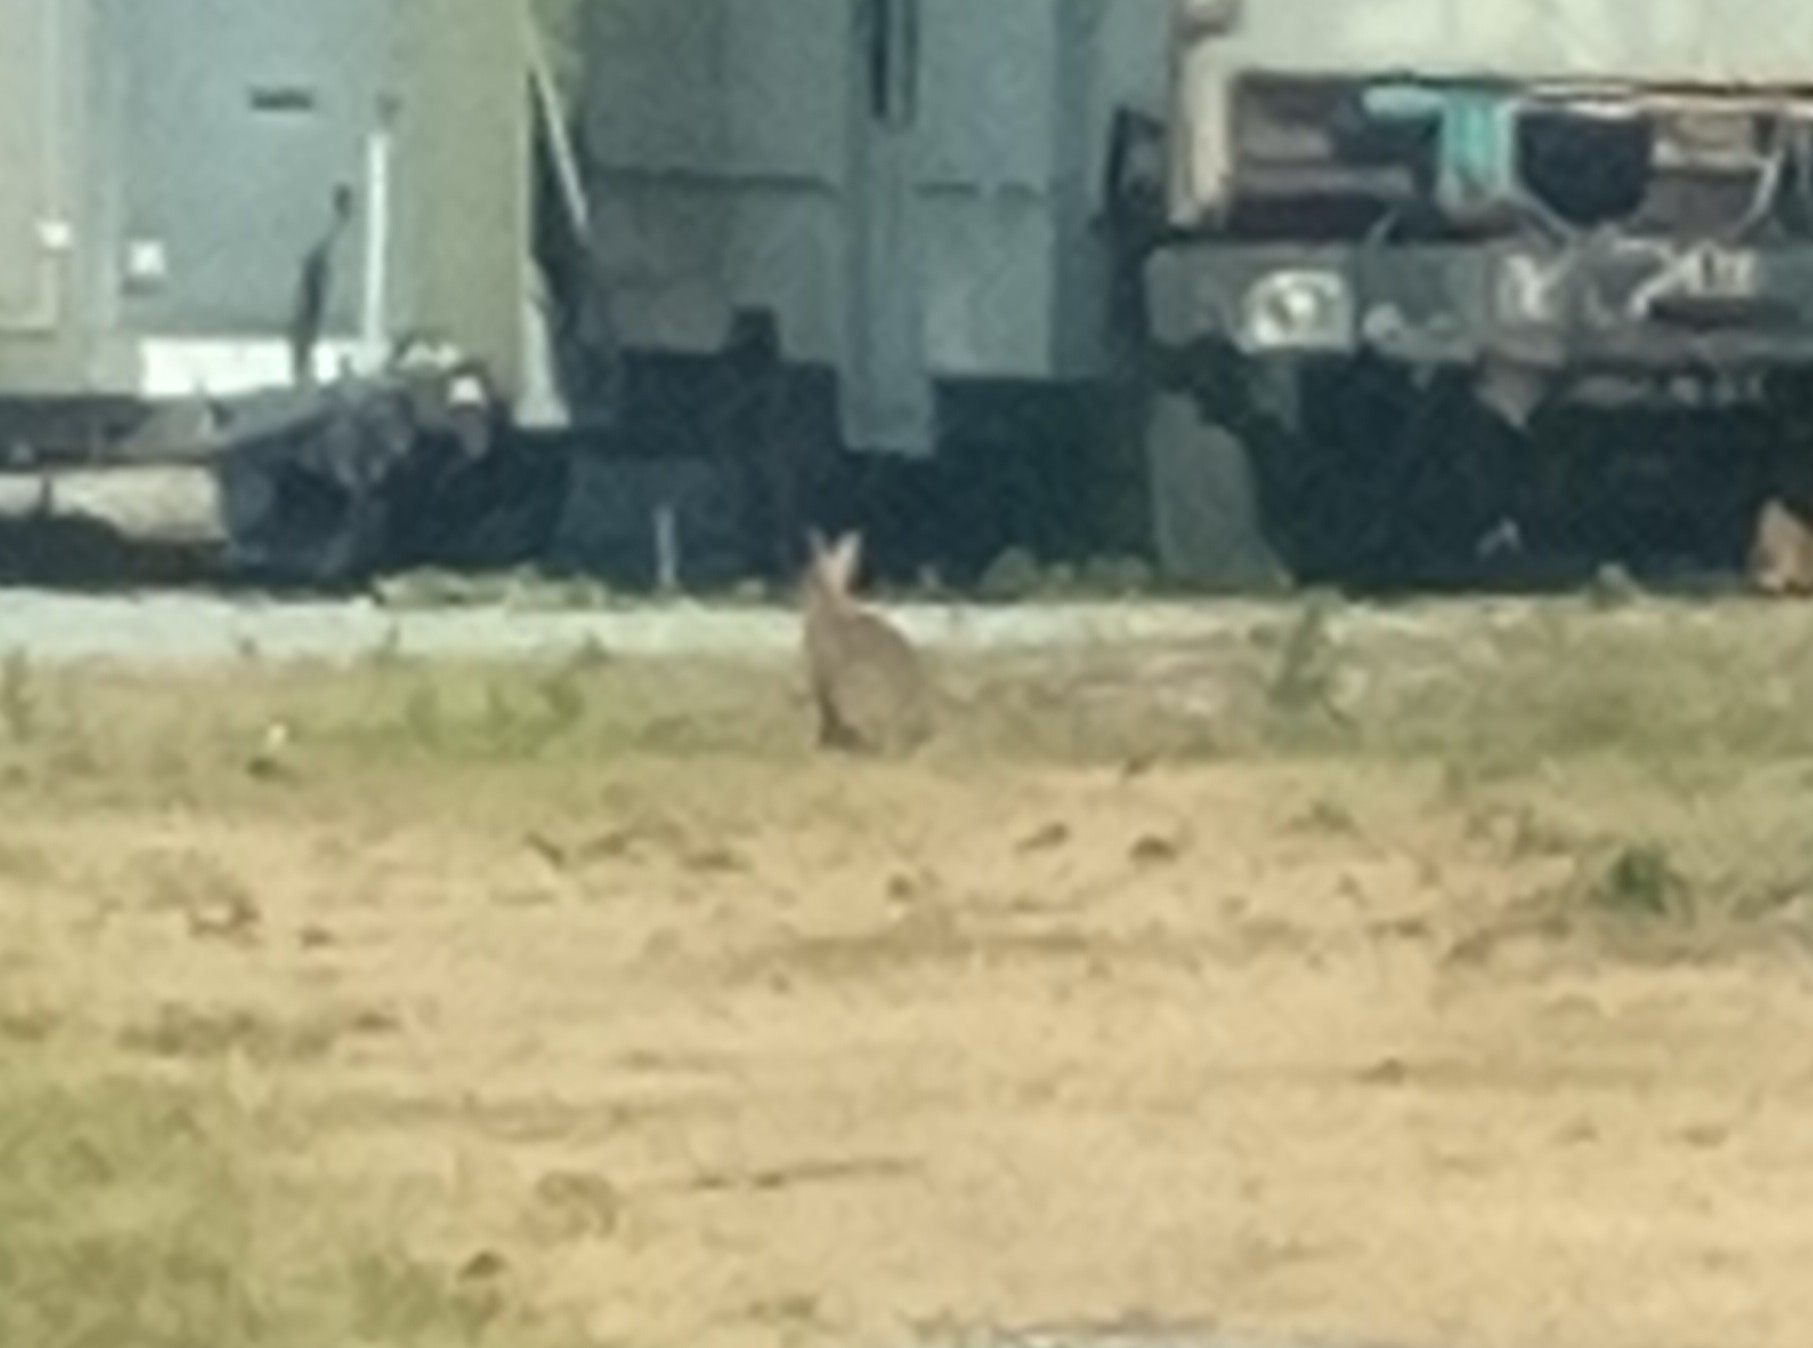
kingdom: Animalia
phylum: Chordata
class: Mammalia
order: Lagomorpha
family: Leporidae
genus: Oryctolagus
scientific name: Oryctolagus cuniculus
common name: European rabbit
